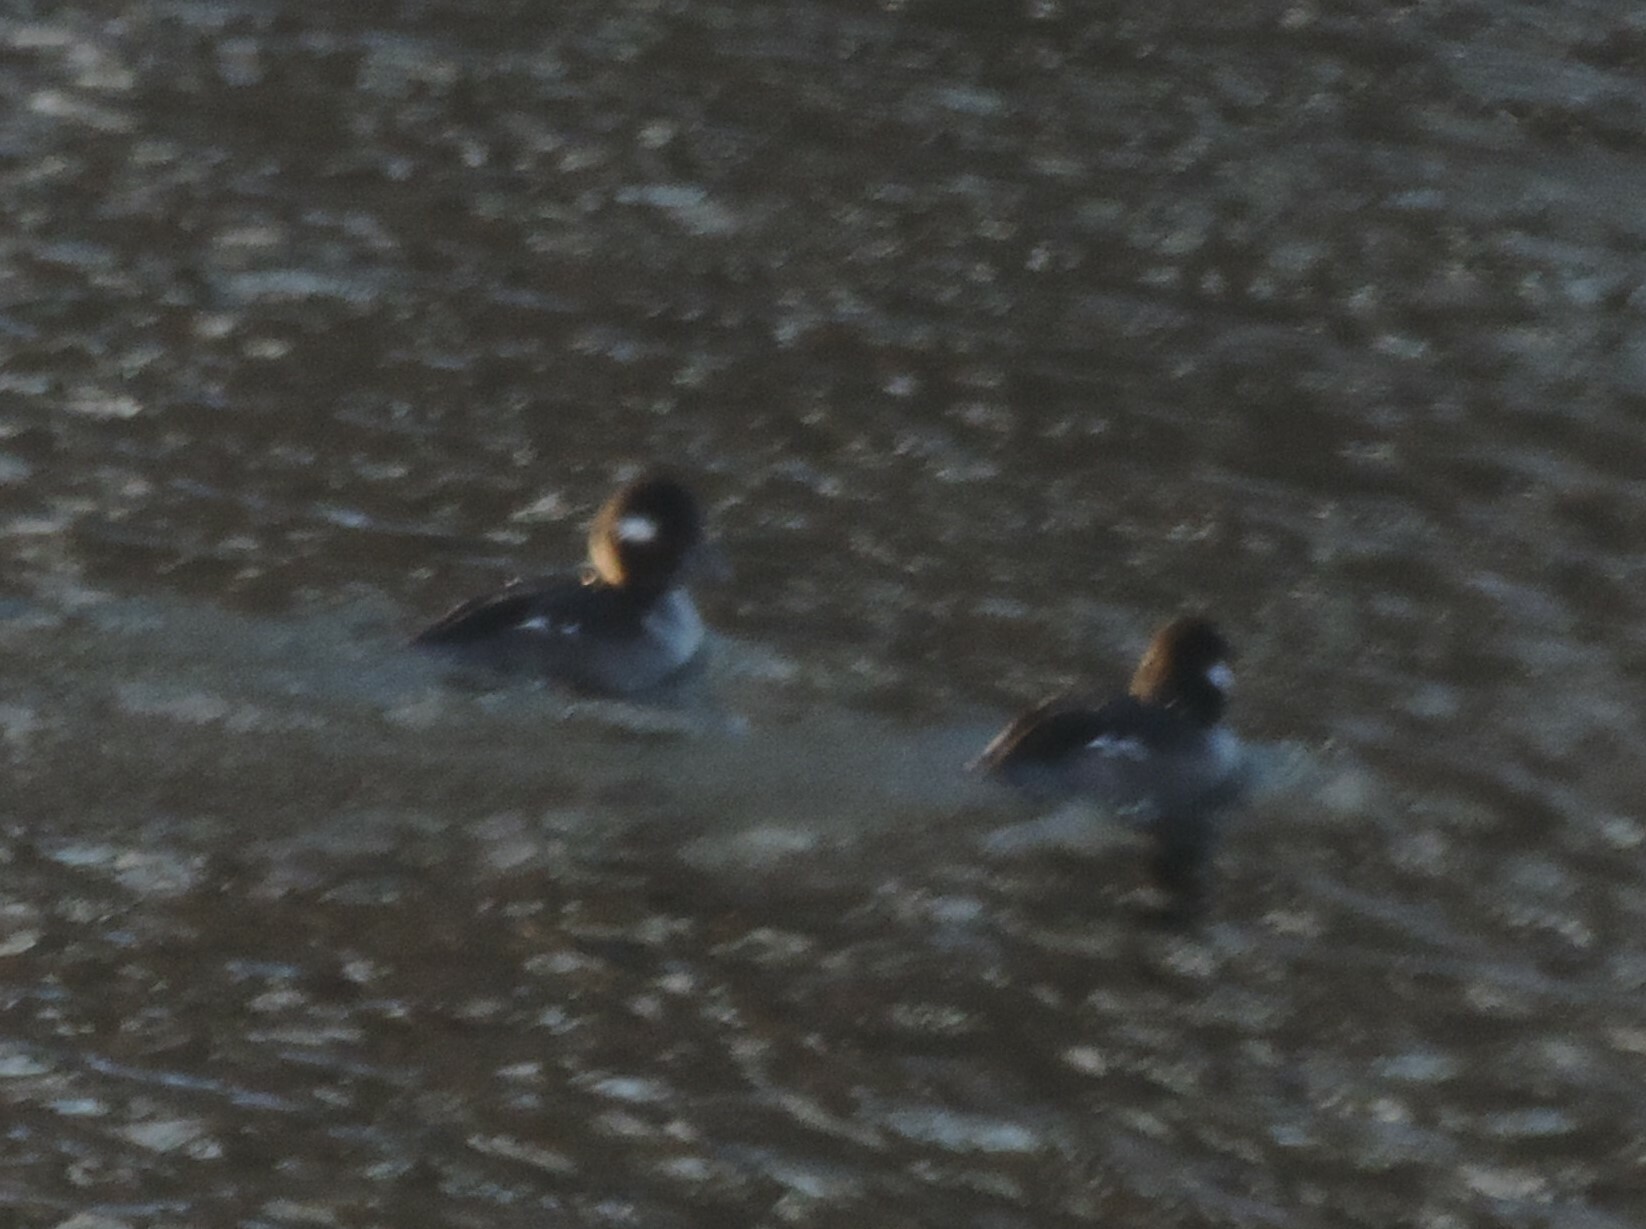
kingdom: Animalia
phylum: Chordata
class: Aves
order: Anseriformes
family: Anatidae
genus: Bucephala
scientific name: Bucephala albeola
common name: Bufflehead
